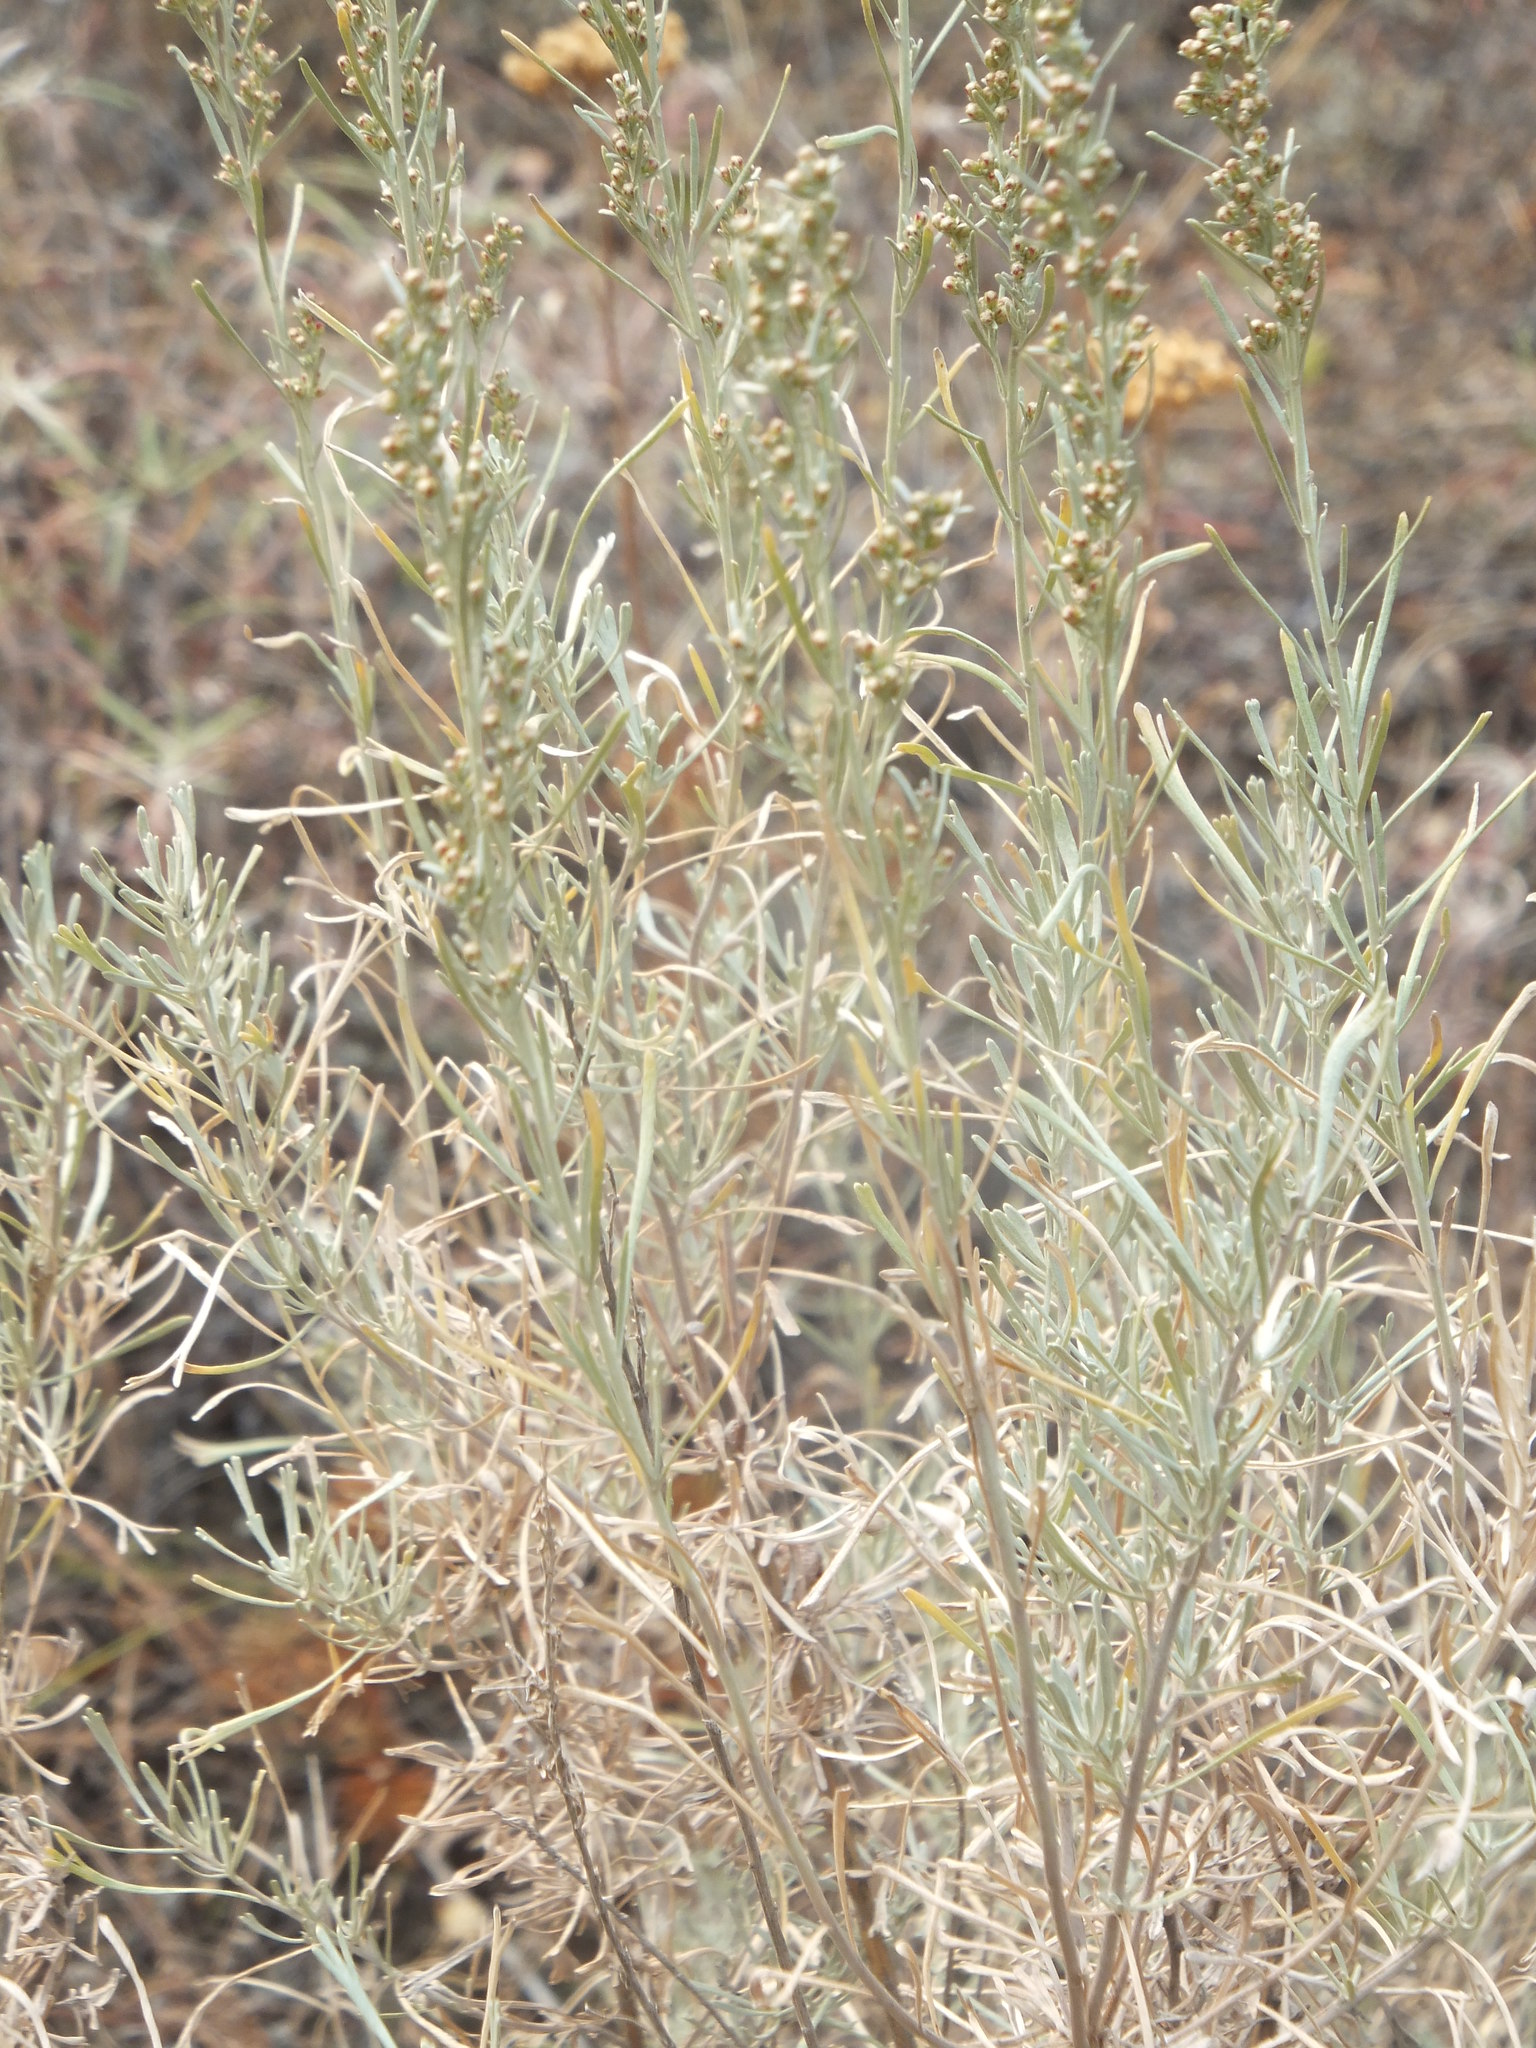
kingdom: Plantae
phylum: Tracheophyta
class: Magnoliopsida
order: Asterales
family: Asteraceae
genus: Artemisia
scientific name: Artemisia tripartita
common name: Three-tip sagebrush
